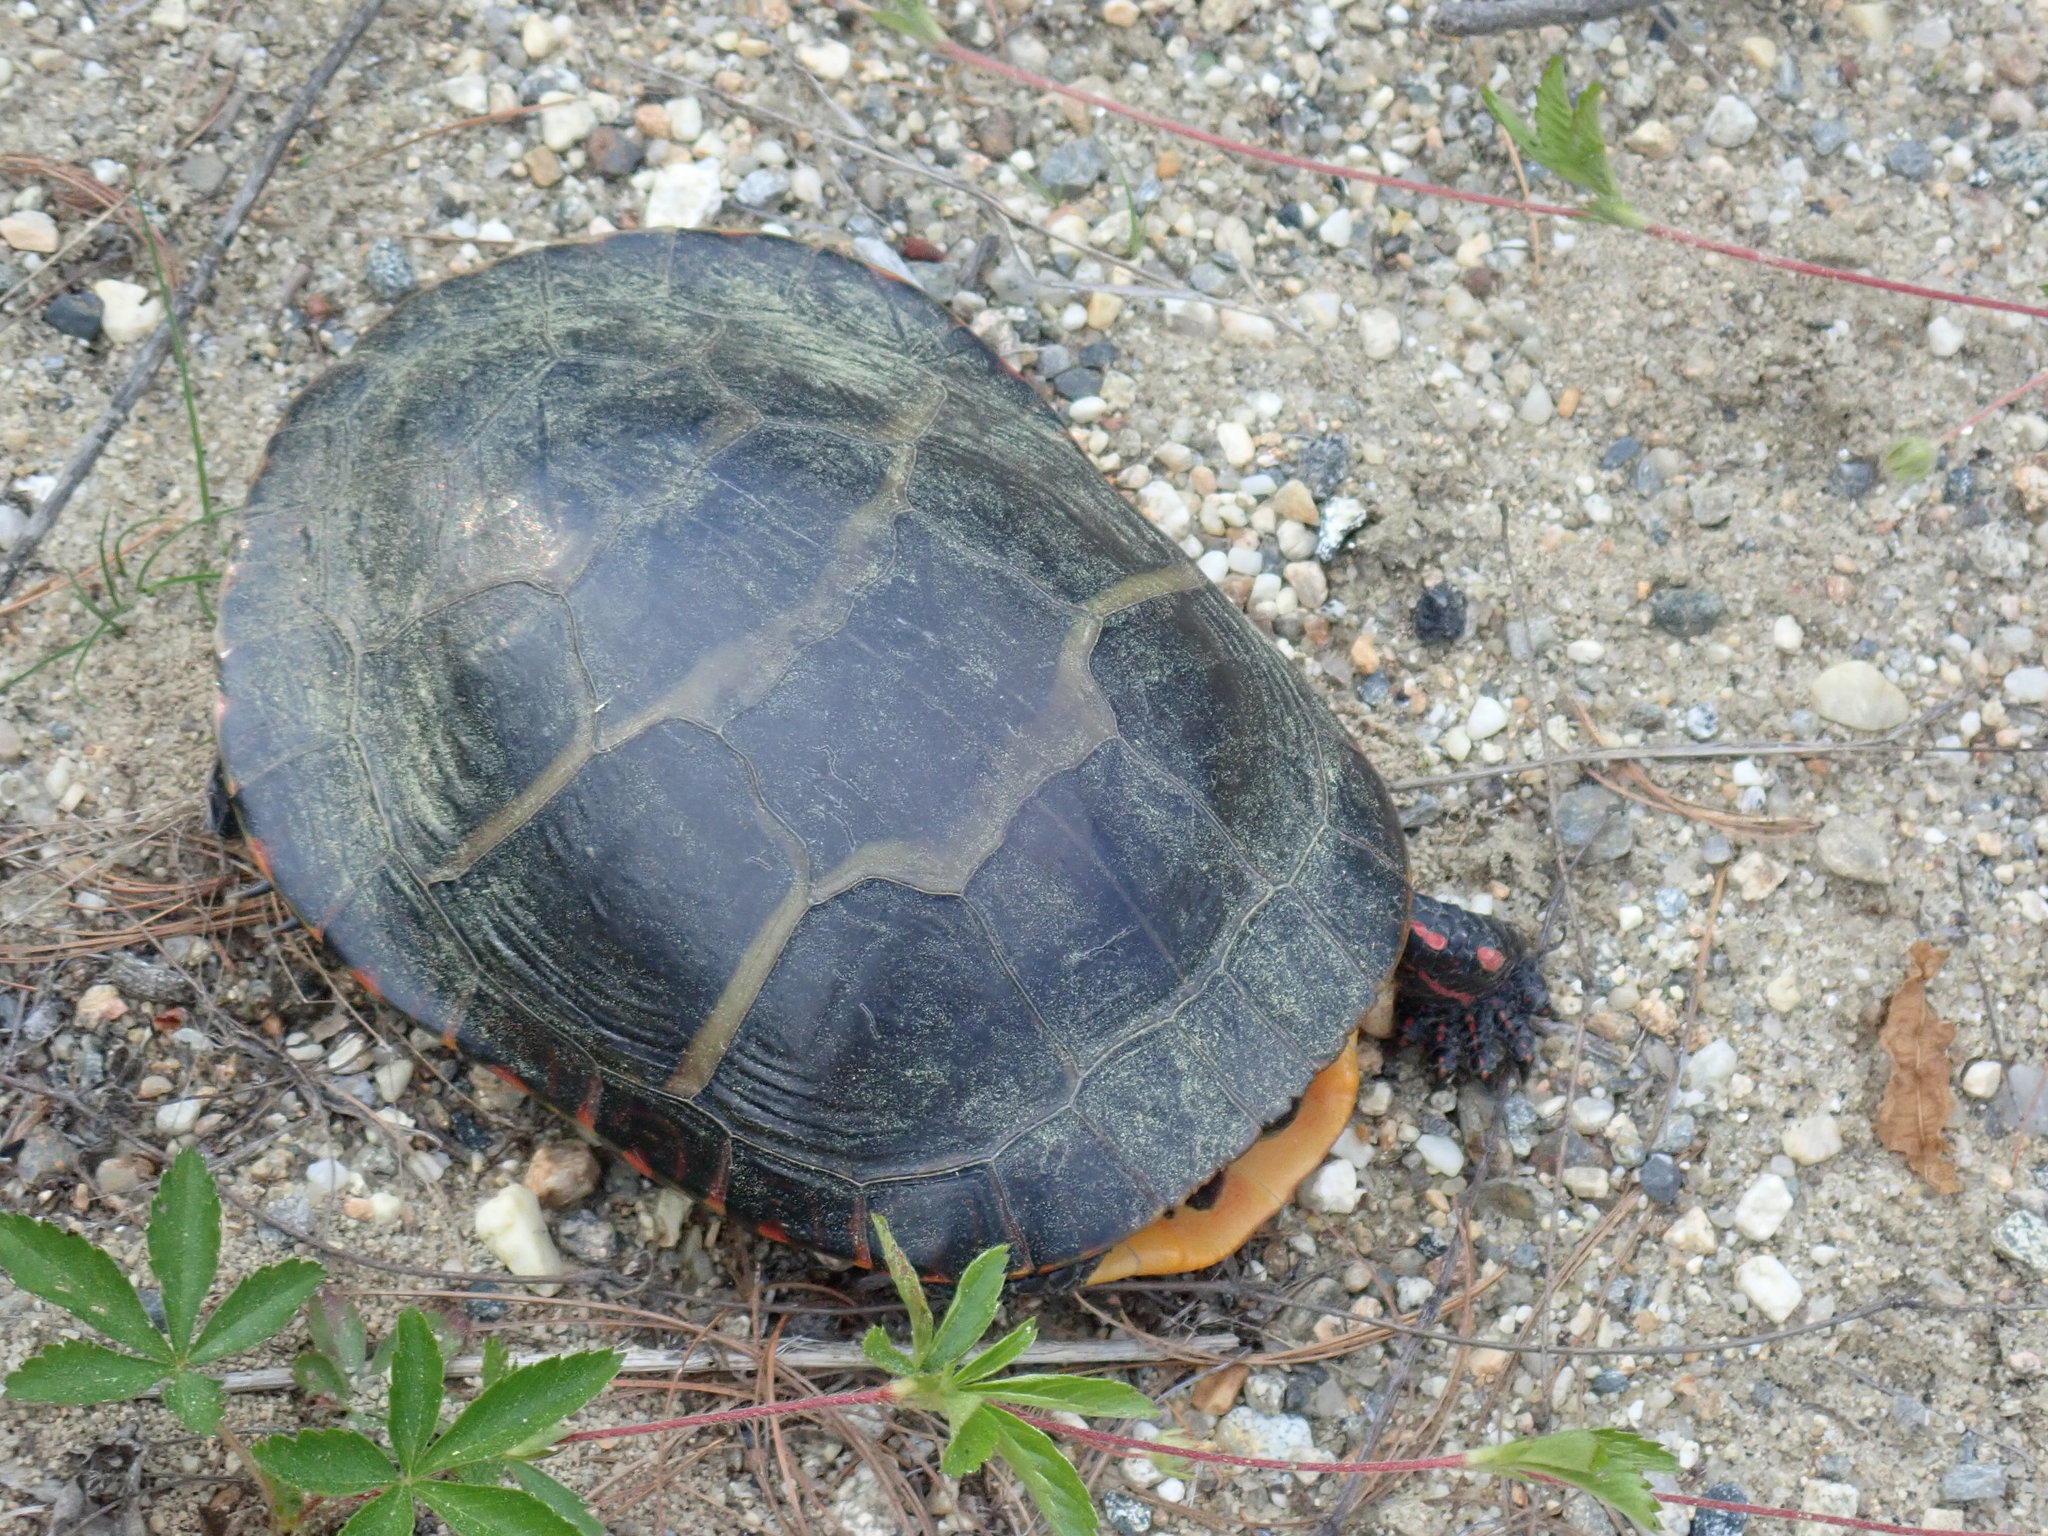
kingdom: Animalia
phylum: Chordata
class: Testudines
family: Emydidae
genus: Chrysemys
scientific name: Chrysemys picta
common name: Painted turtle
